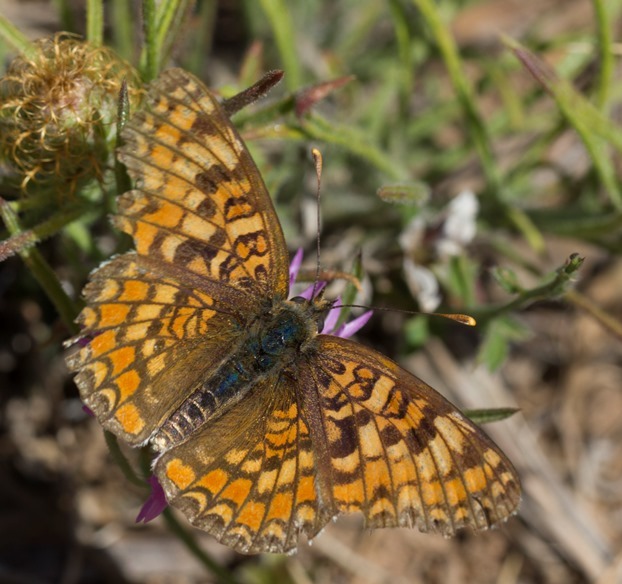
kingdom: Animalia
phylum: Arthropoda
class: Insecta
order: Lepidoptera
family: Nymphalidae
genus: Melitaea
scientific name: Melitaea phoebe
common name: Knapweed fritillary
